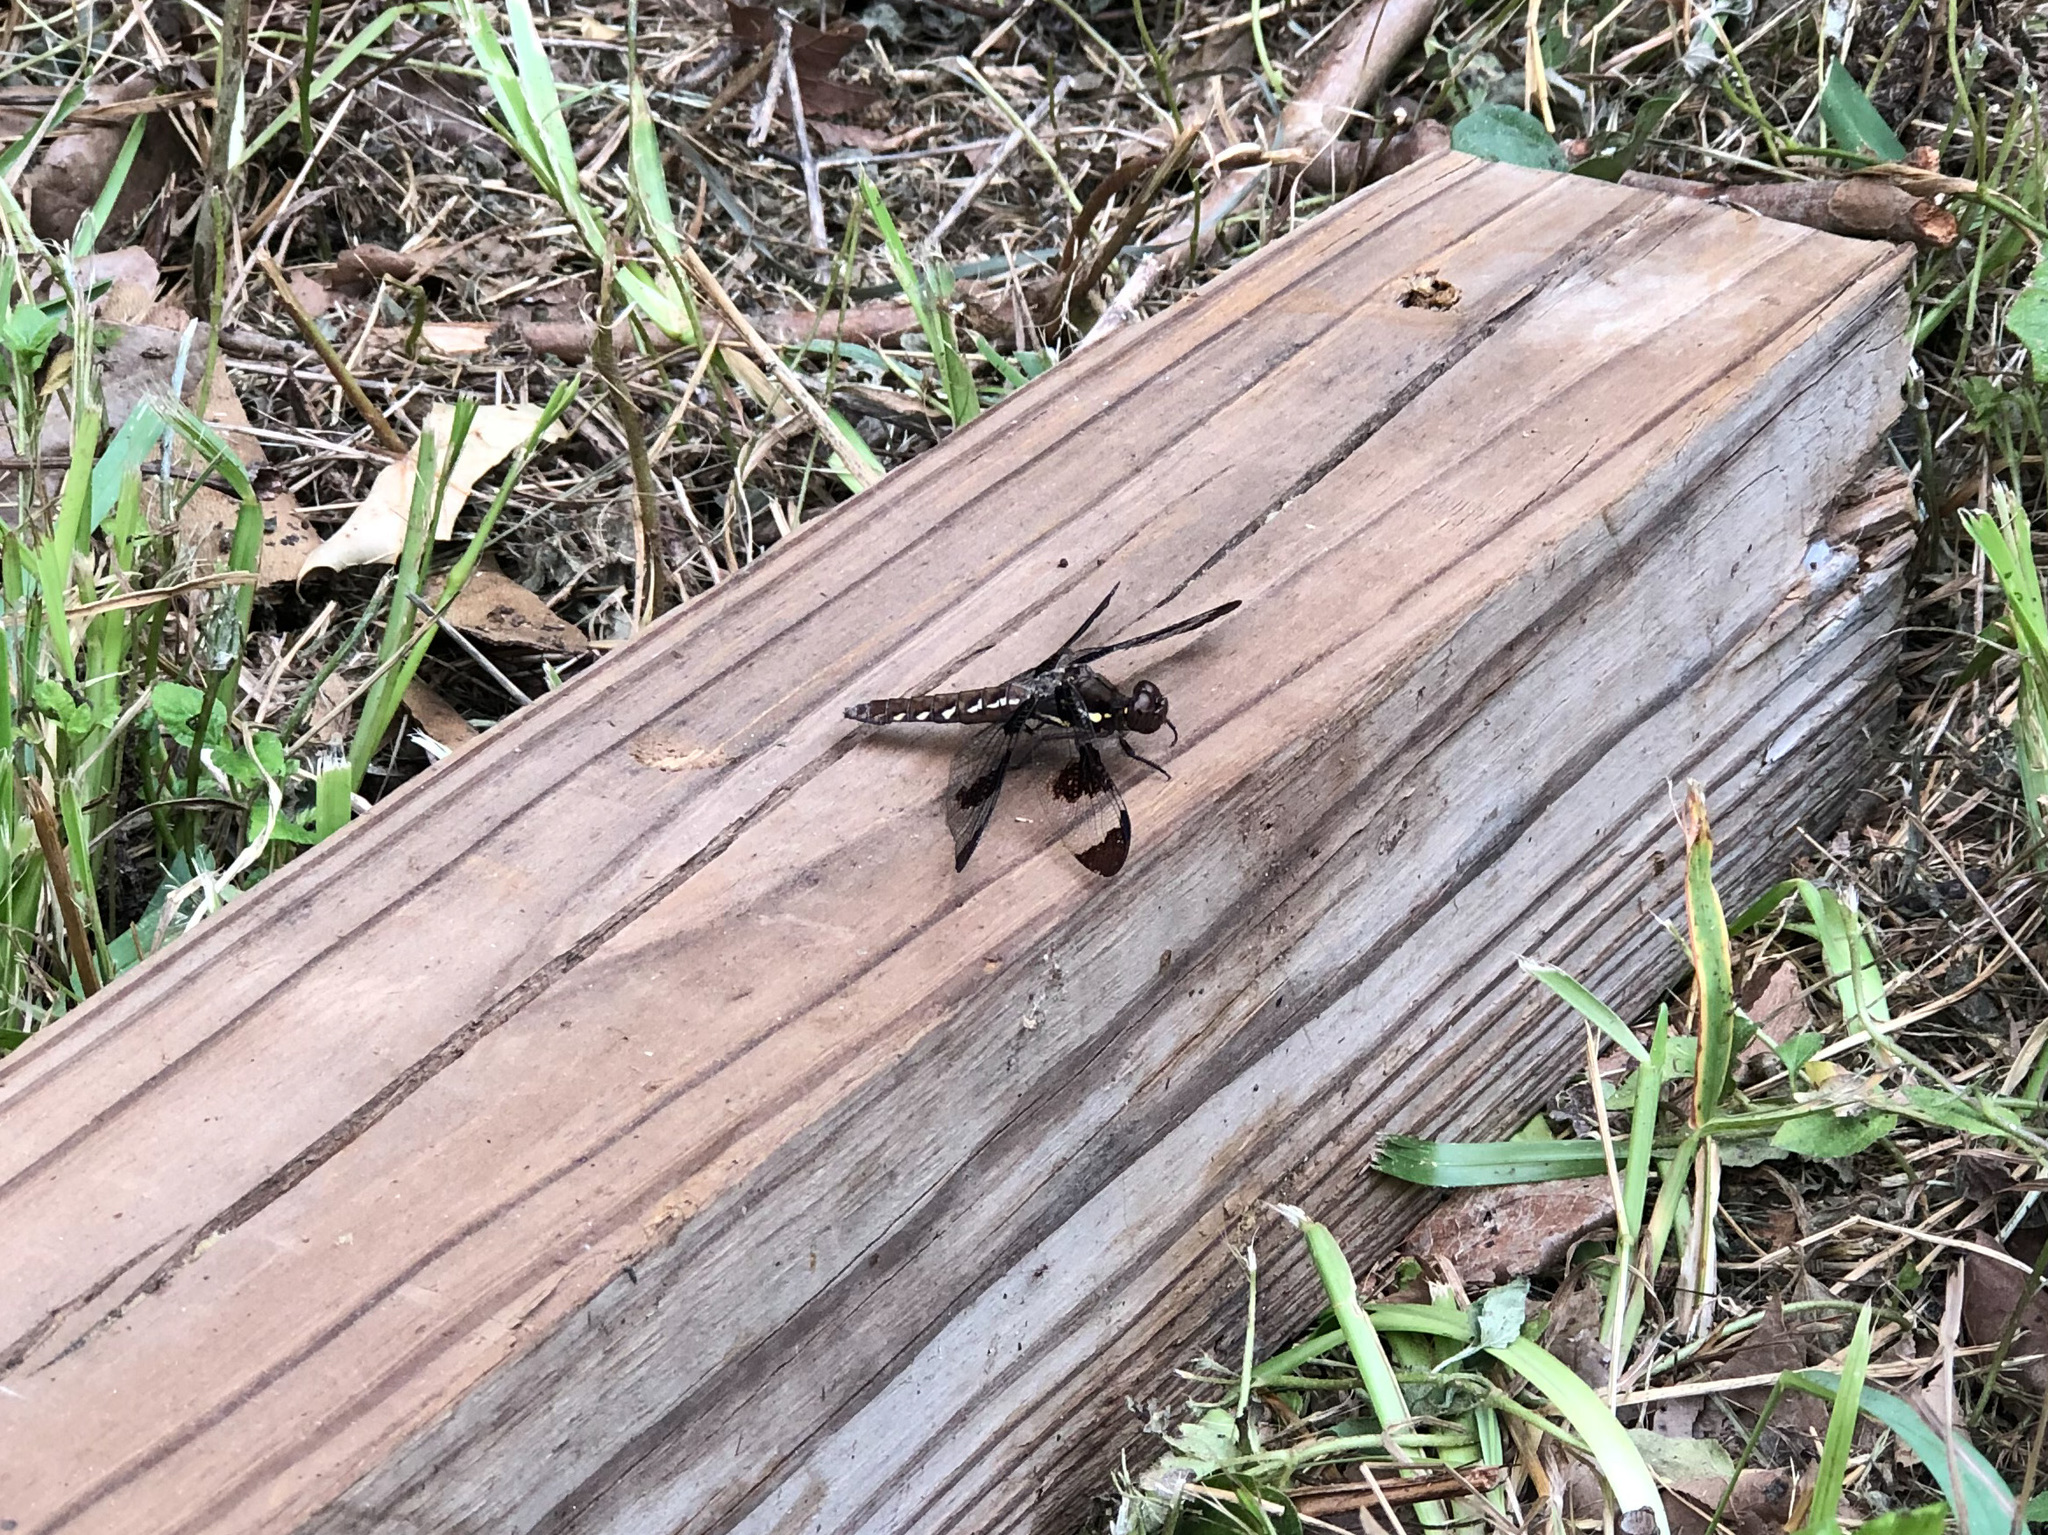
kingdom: Animalia
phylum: Arthropoda
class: Insecta
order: Odonata
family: Libellulidae
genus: Plathemis
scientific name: Plathemis lydia
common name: Common whitetail
